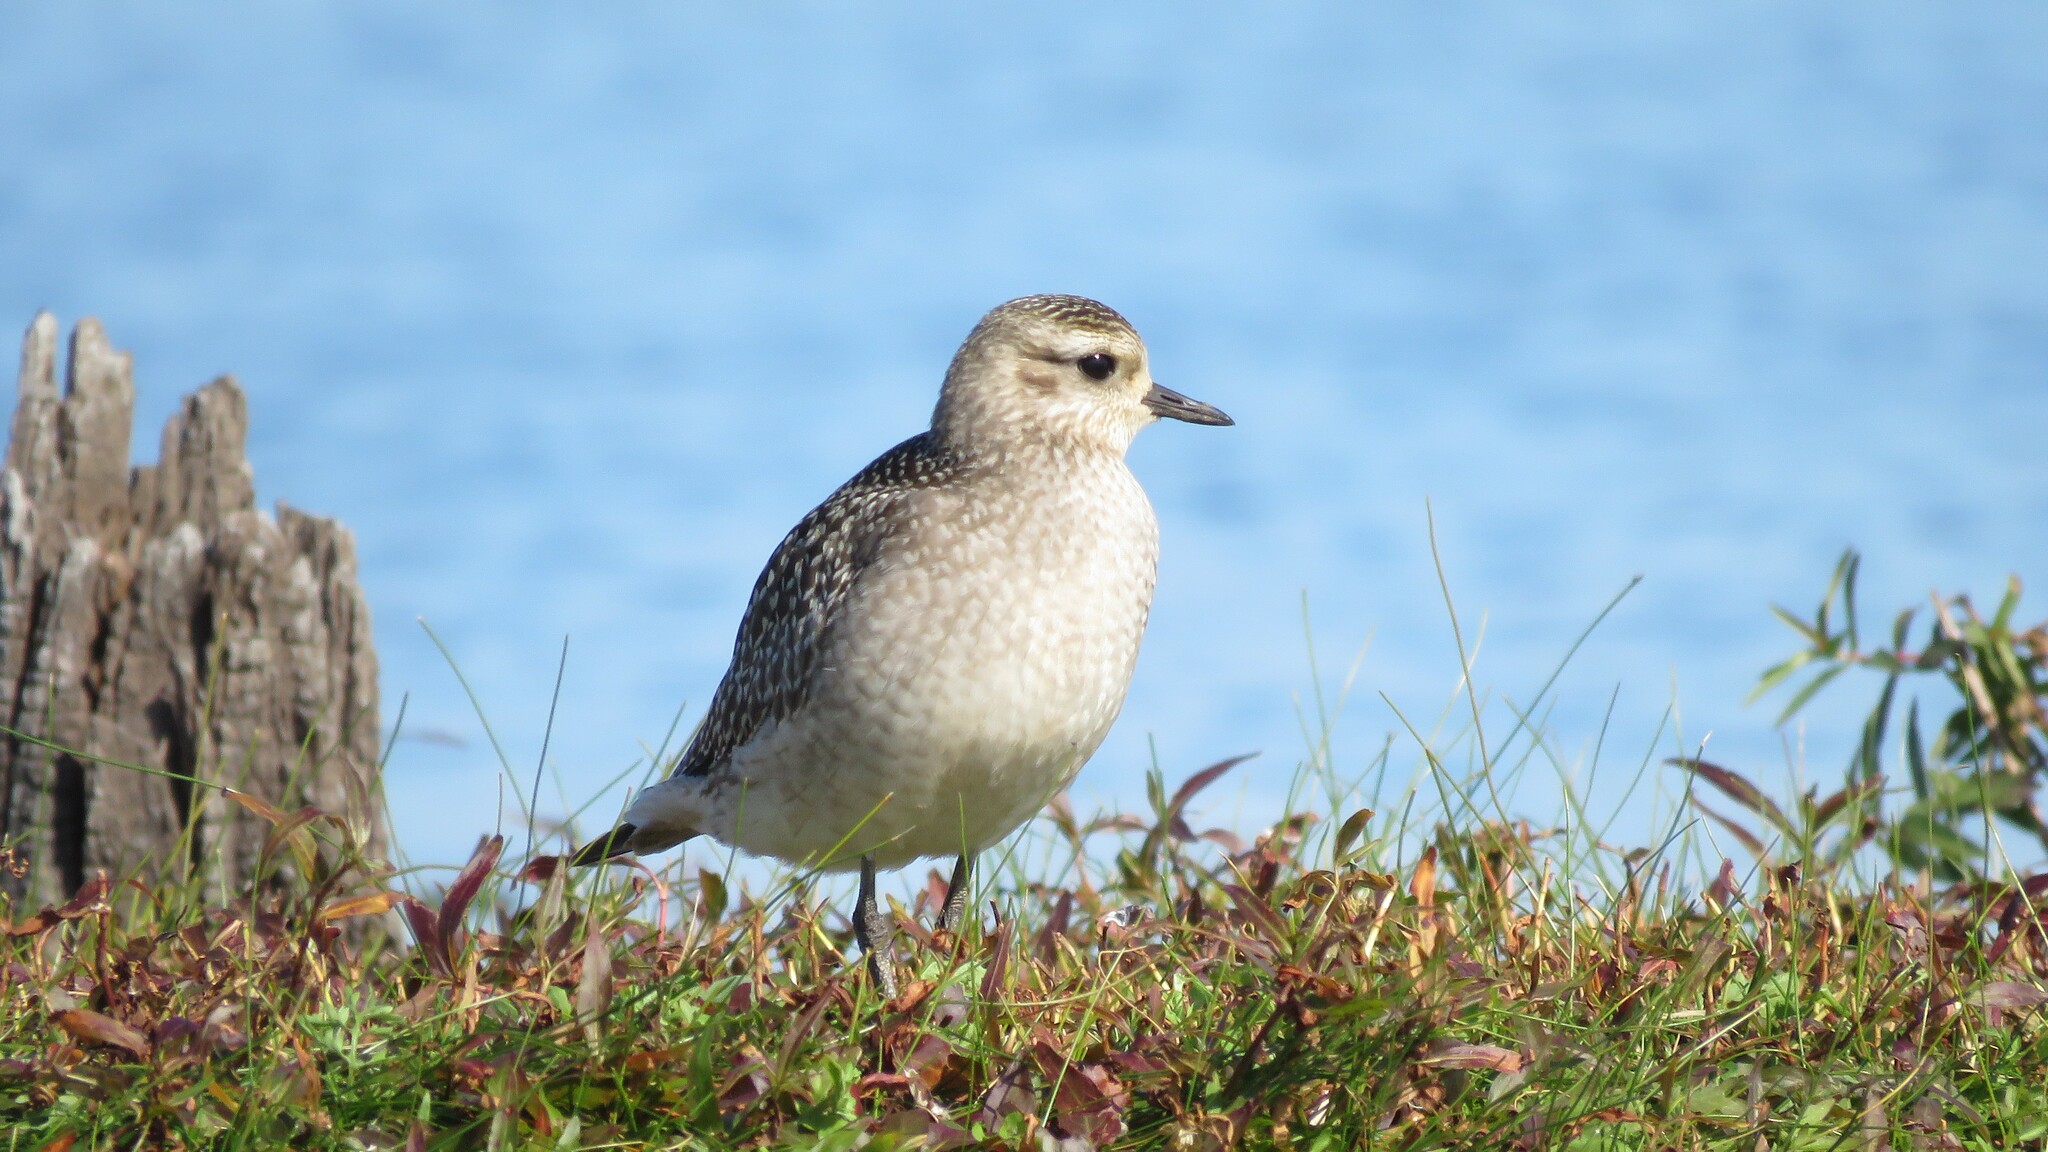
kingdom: Animalia
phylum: Chordata
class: Aves
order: Charadriiformes
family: Charadriidae
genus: Pluvialis
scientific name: Pluvialis dominica
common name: American golden plover
